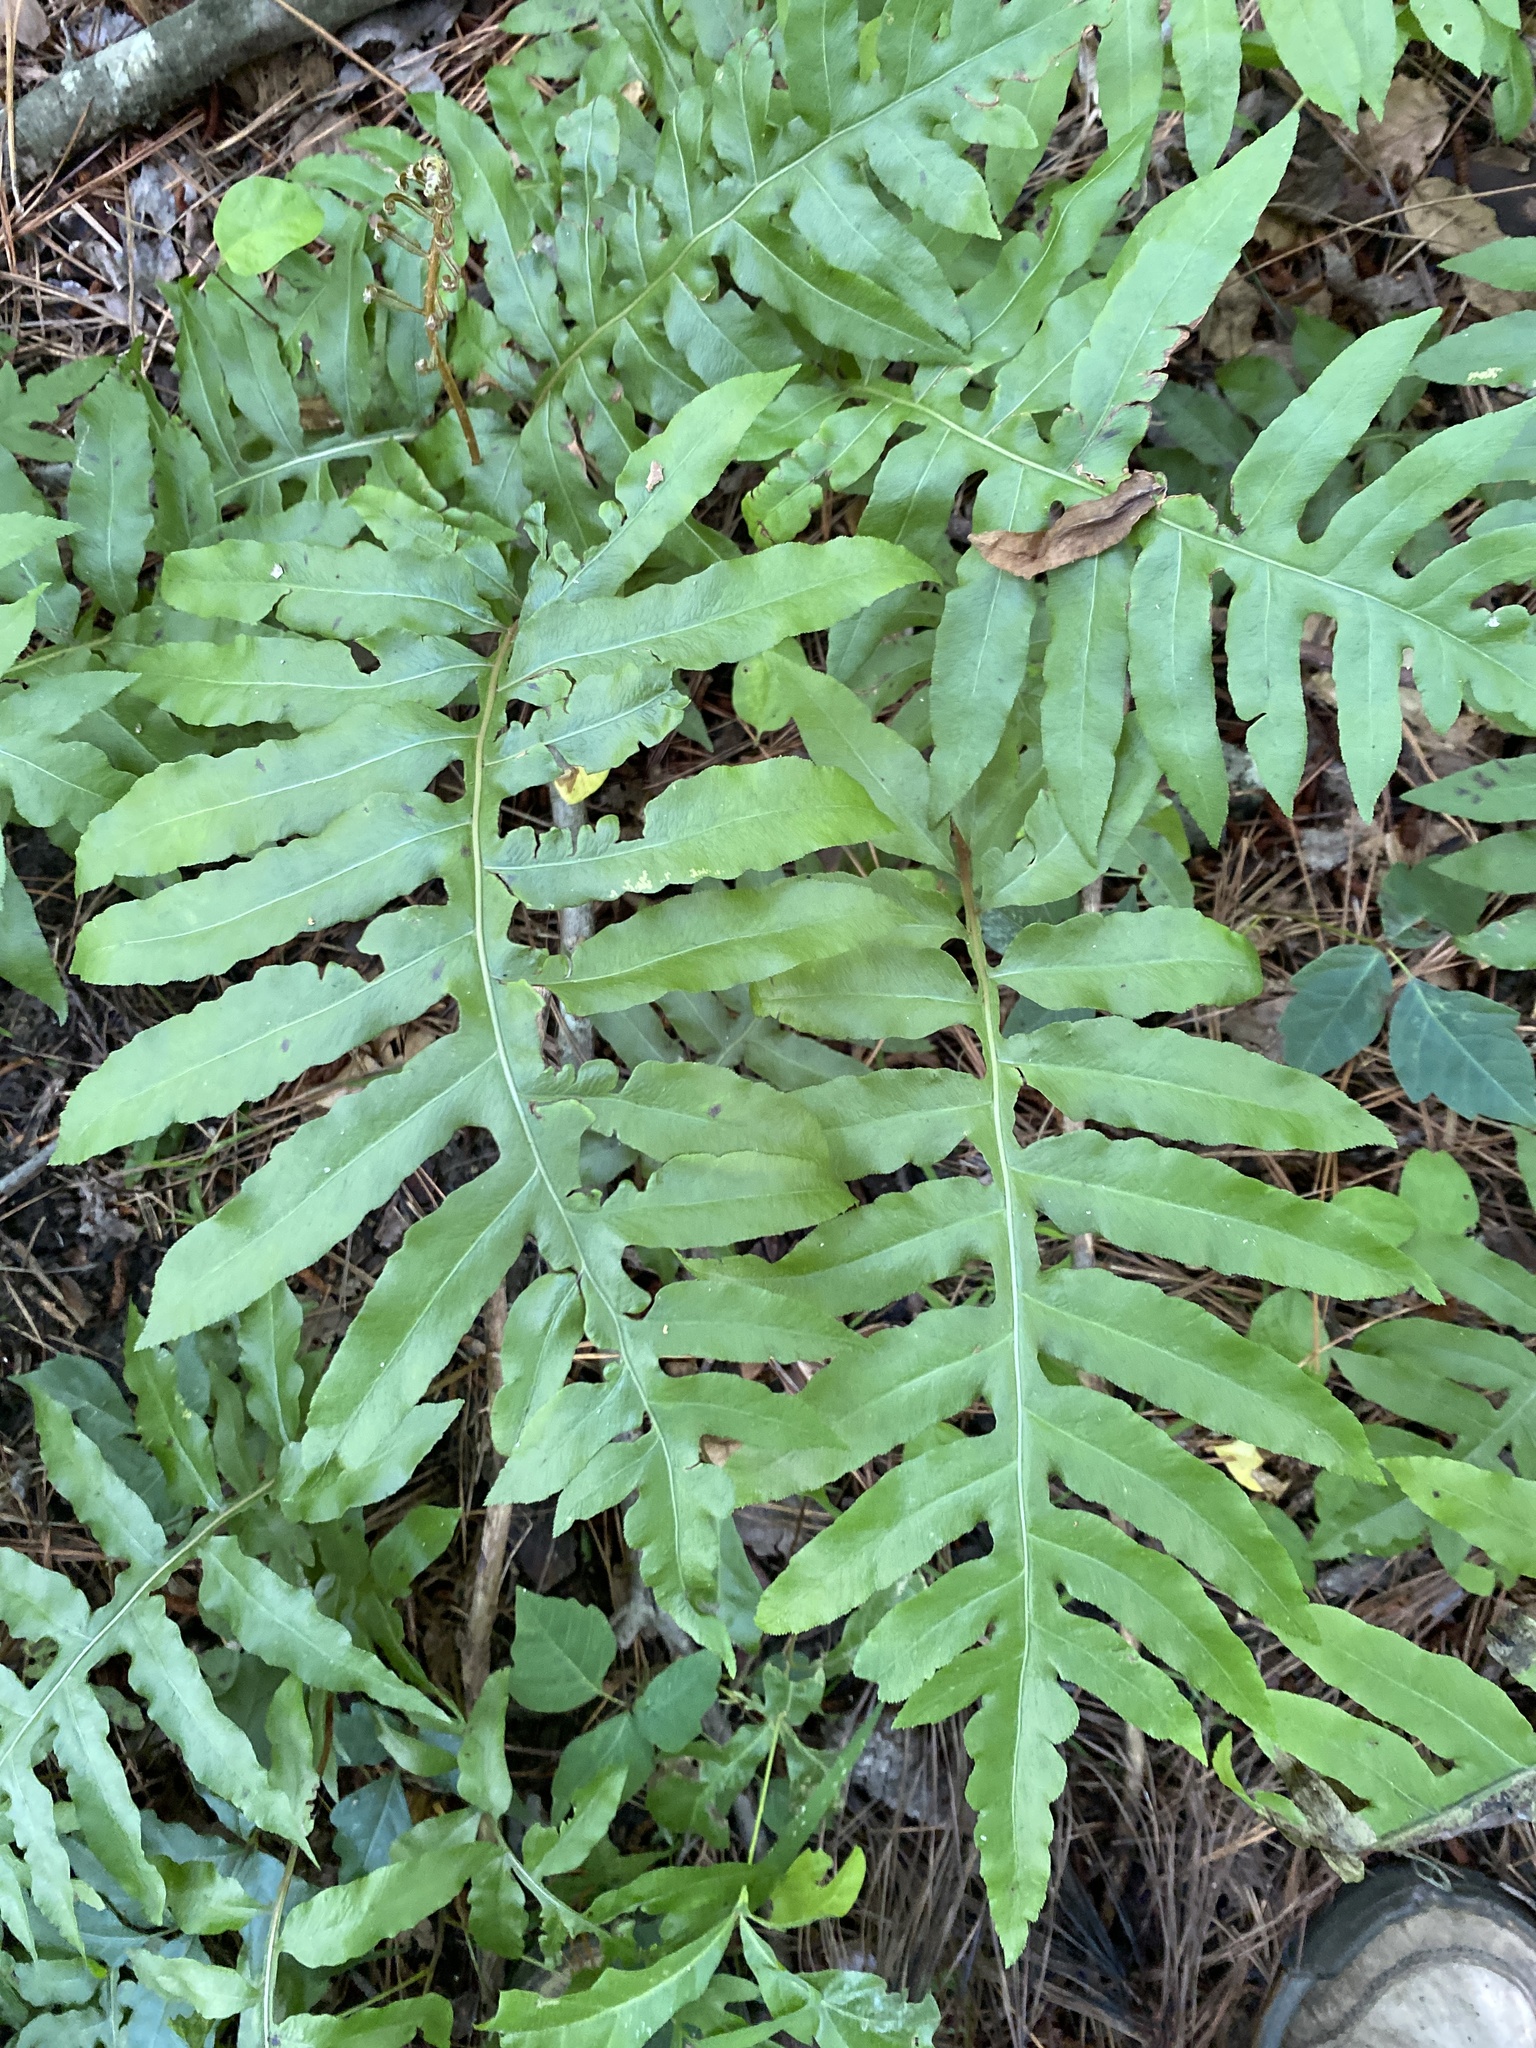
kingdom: Plantae
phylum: Tracheophyta
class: Polypodiopsida
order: Polypodiales
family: Blechnaceae
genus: Lorinseria
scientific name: Lorinseria areolata
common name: Dwarf chain fern
